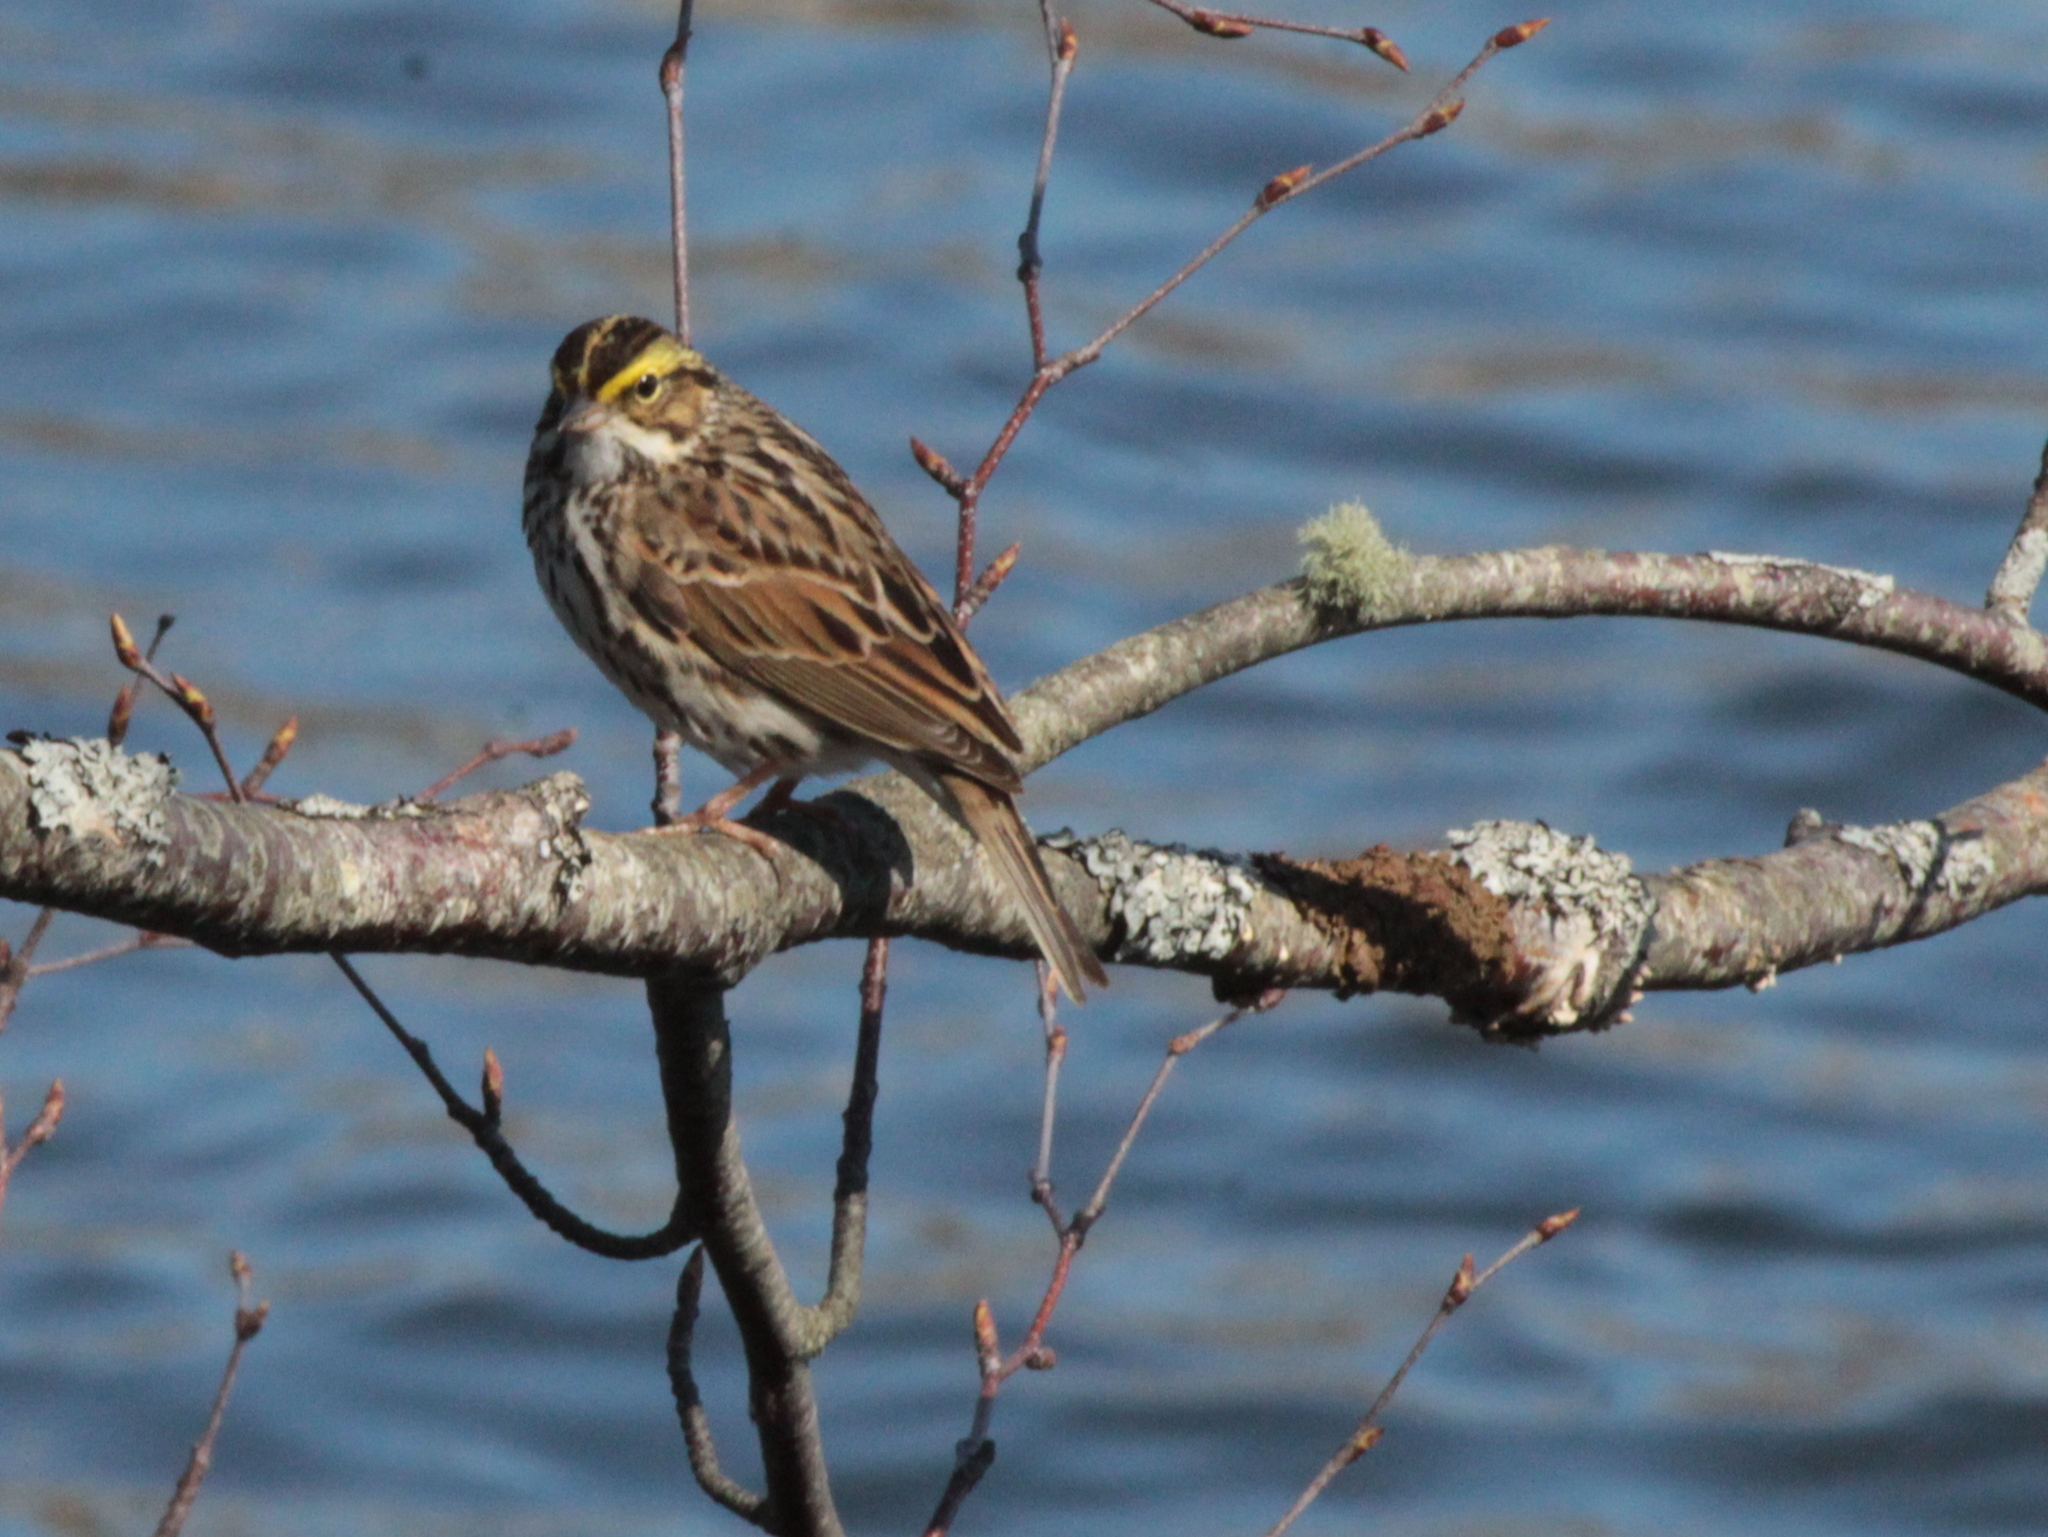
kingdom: Animalia
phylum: Chordata
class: Aves
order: Passeriformes
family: Passerellidae
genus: Passerculus
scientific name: Passerculus sandwichensis
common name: Savannah sparrow
